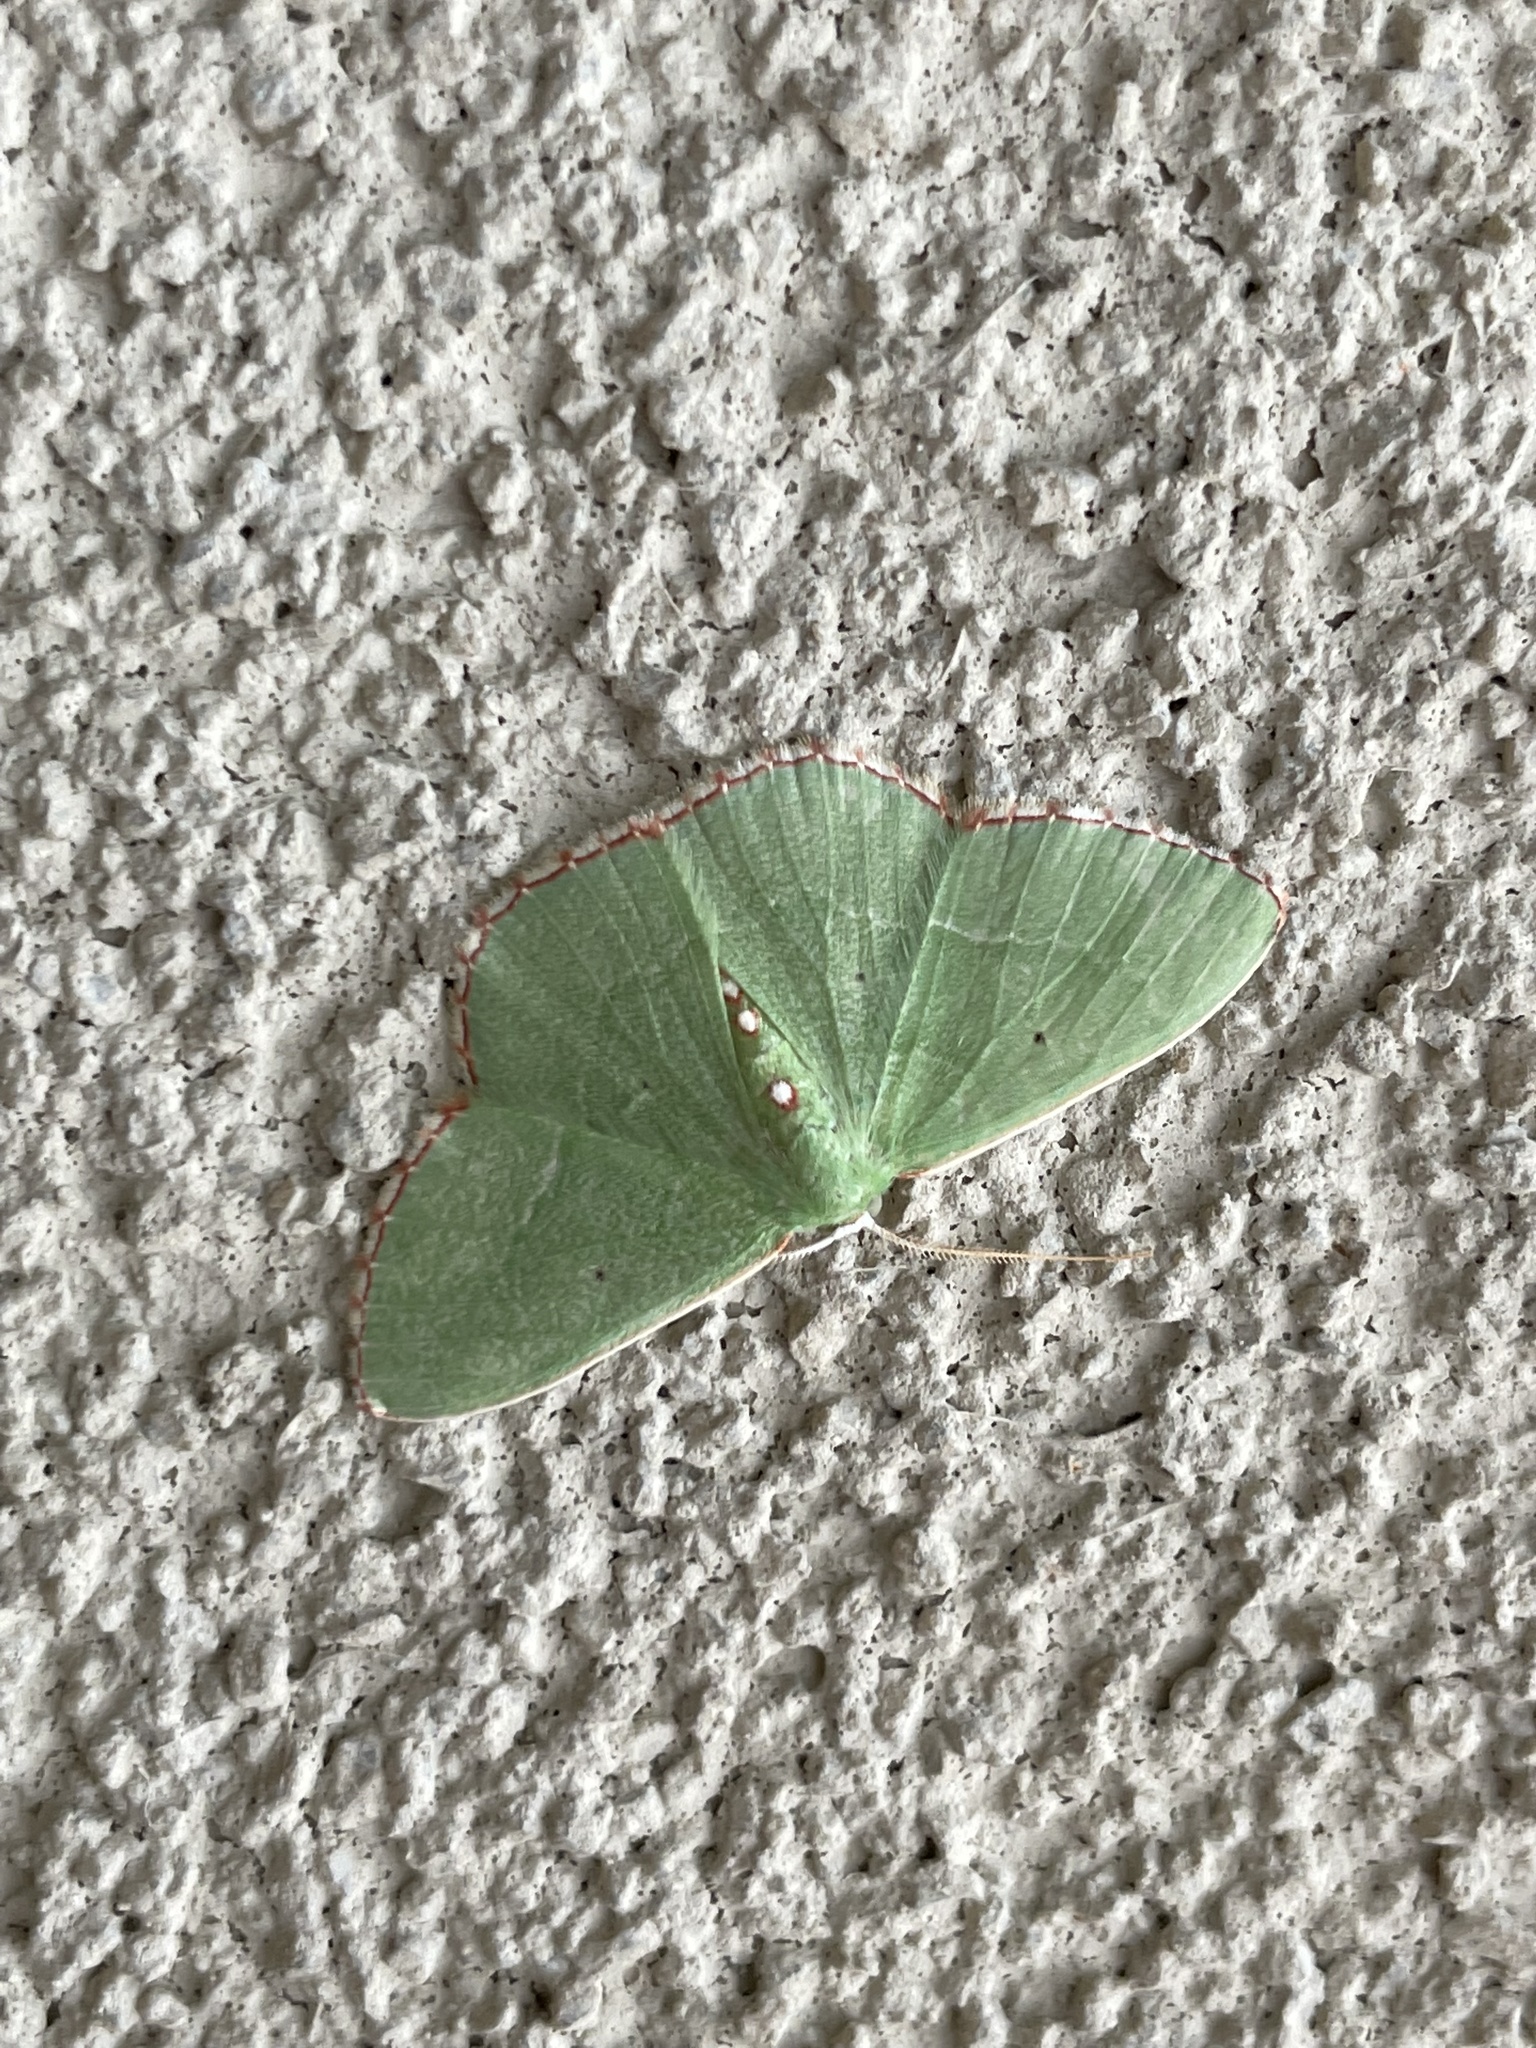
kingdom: Animalia
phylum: Arthropoda
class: Insecta
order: Lepidoptera
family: Geometridae
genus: Nemoria
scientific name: Nemoria lixaria
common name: Red-bordered emerald
